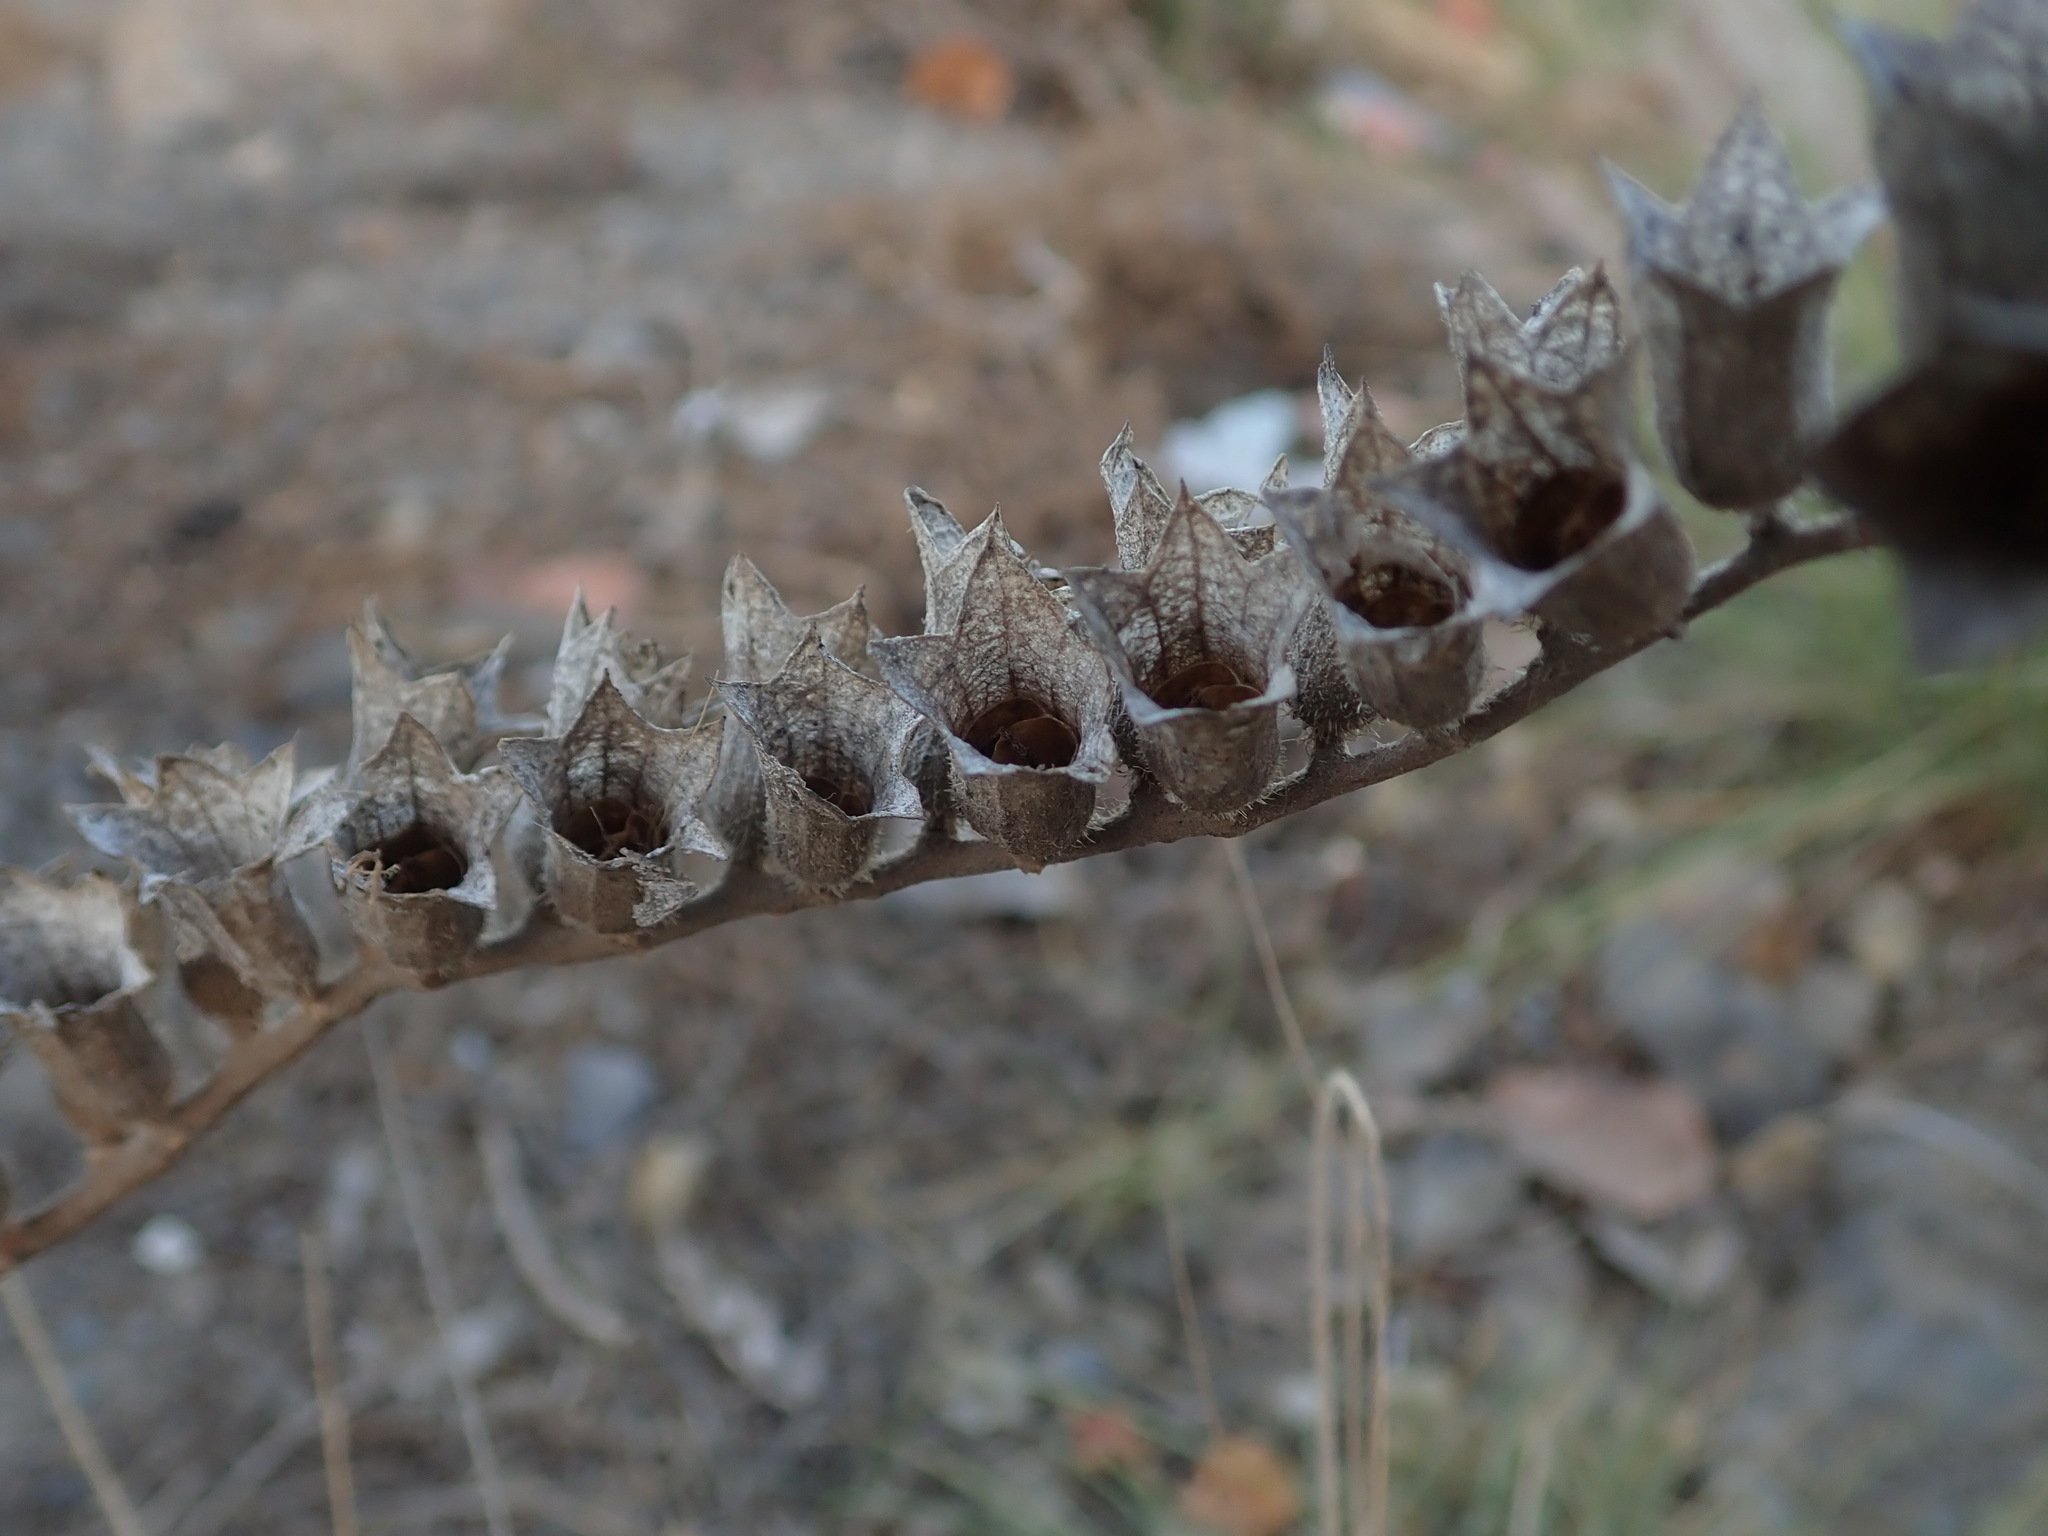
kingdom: Plantae
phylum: Tracheophyta
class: Magnoliopsida
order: Solanales
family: Solanaceae
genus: Hyoscyamus
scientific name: Hyoscyamus albus
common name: White henbane
